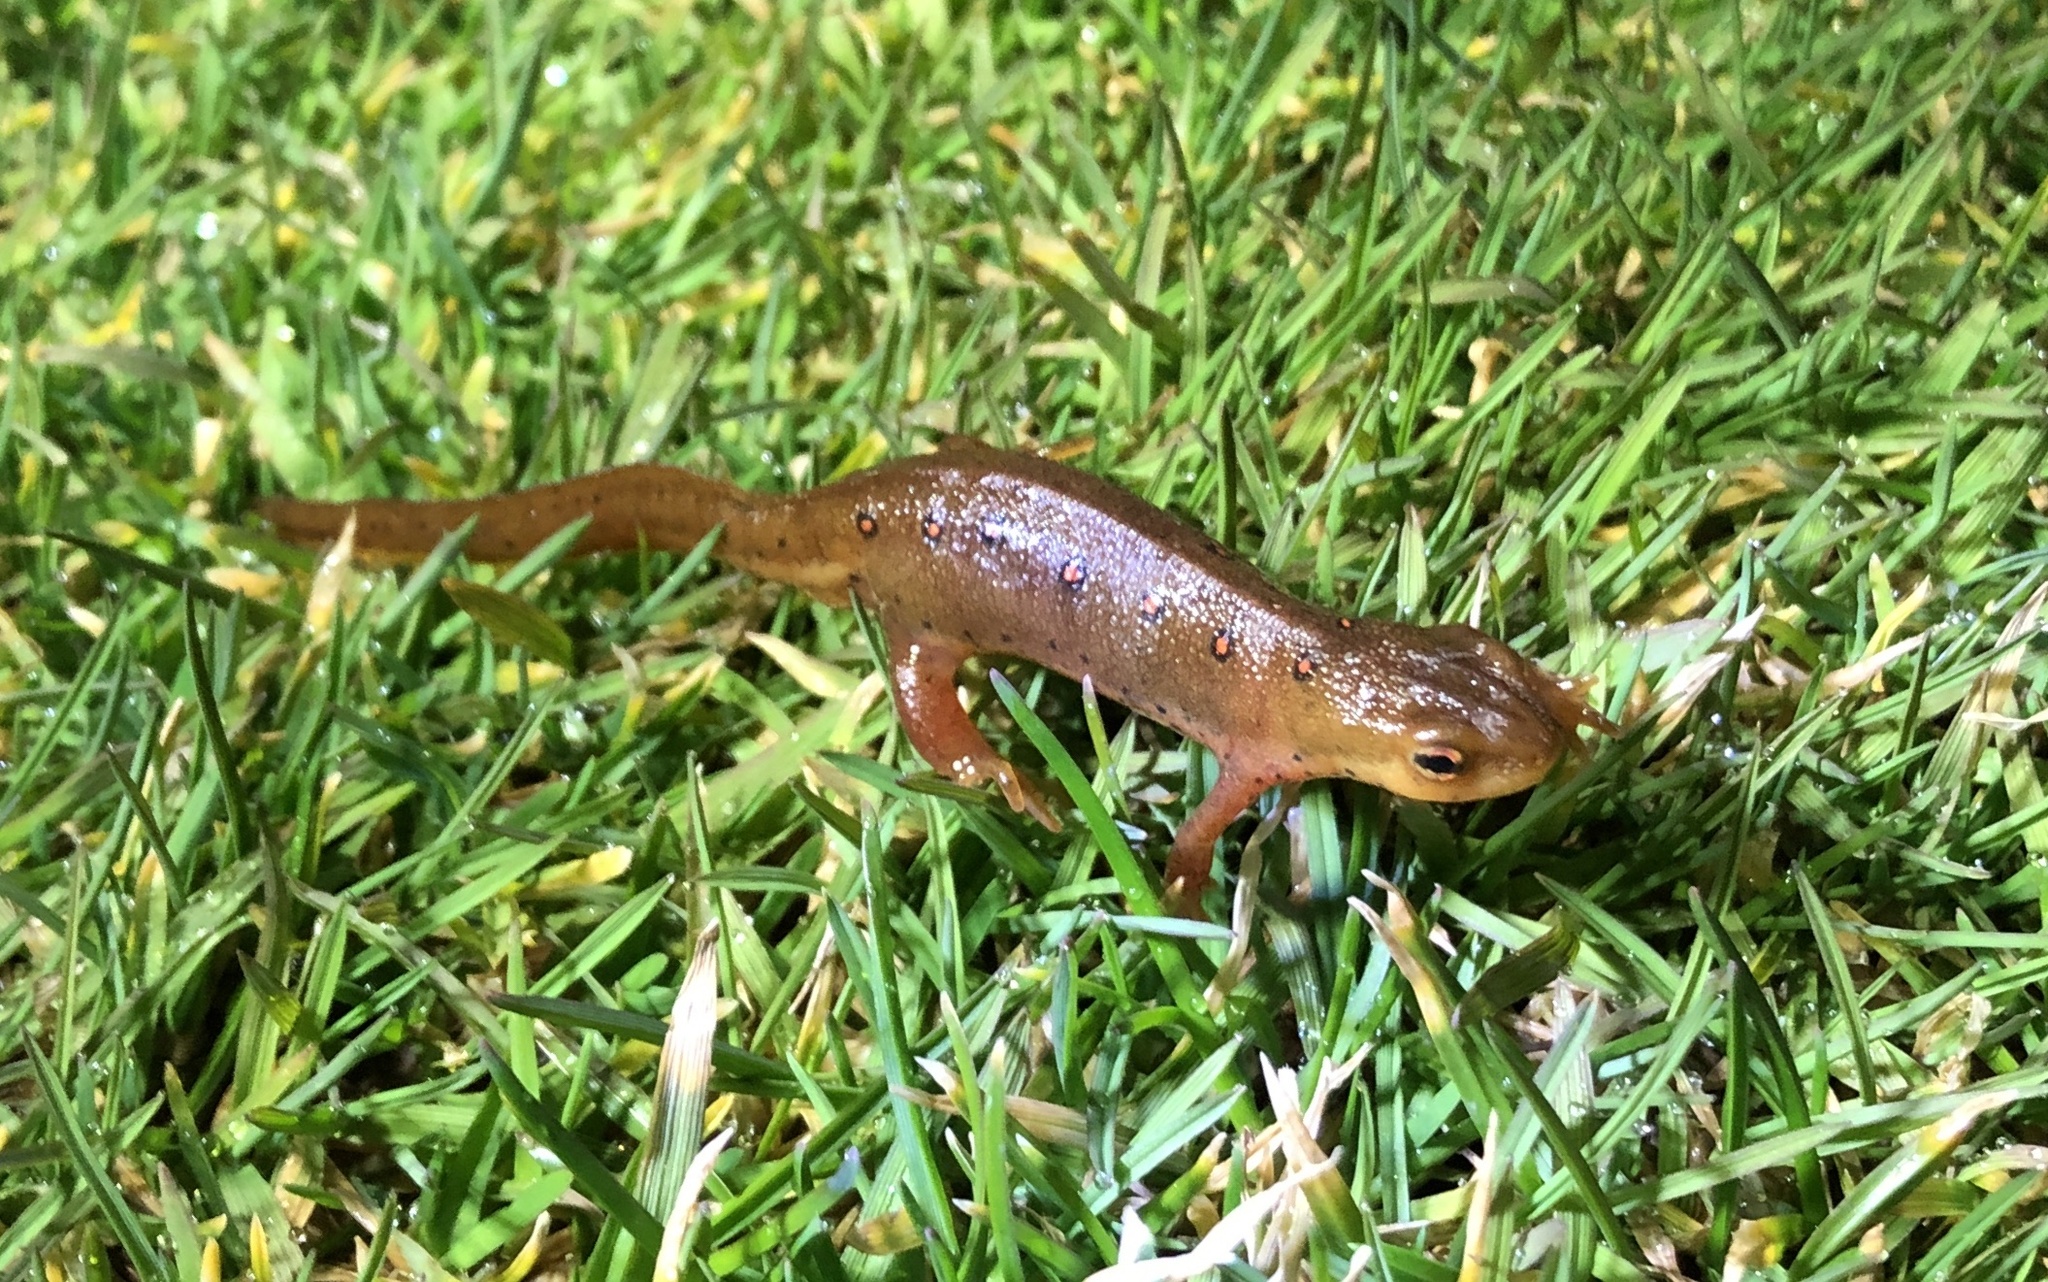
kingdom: Animalia
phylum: Chordata
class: Amphibia
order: Caudata
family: Salamandridae
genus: Notophthalmus
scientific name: Notophthalmus viridescens
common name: Eastern newt
